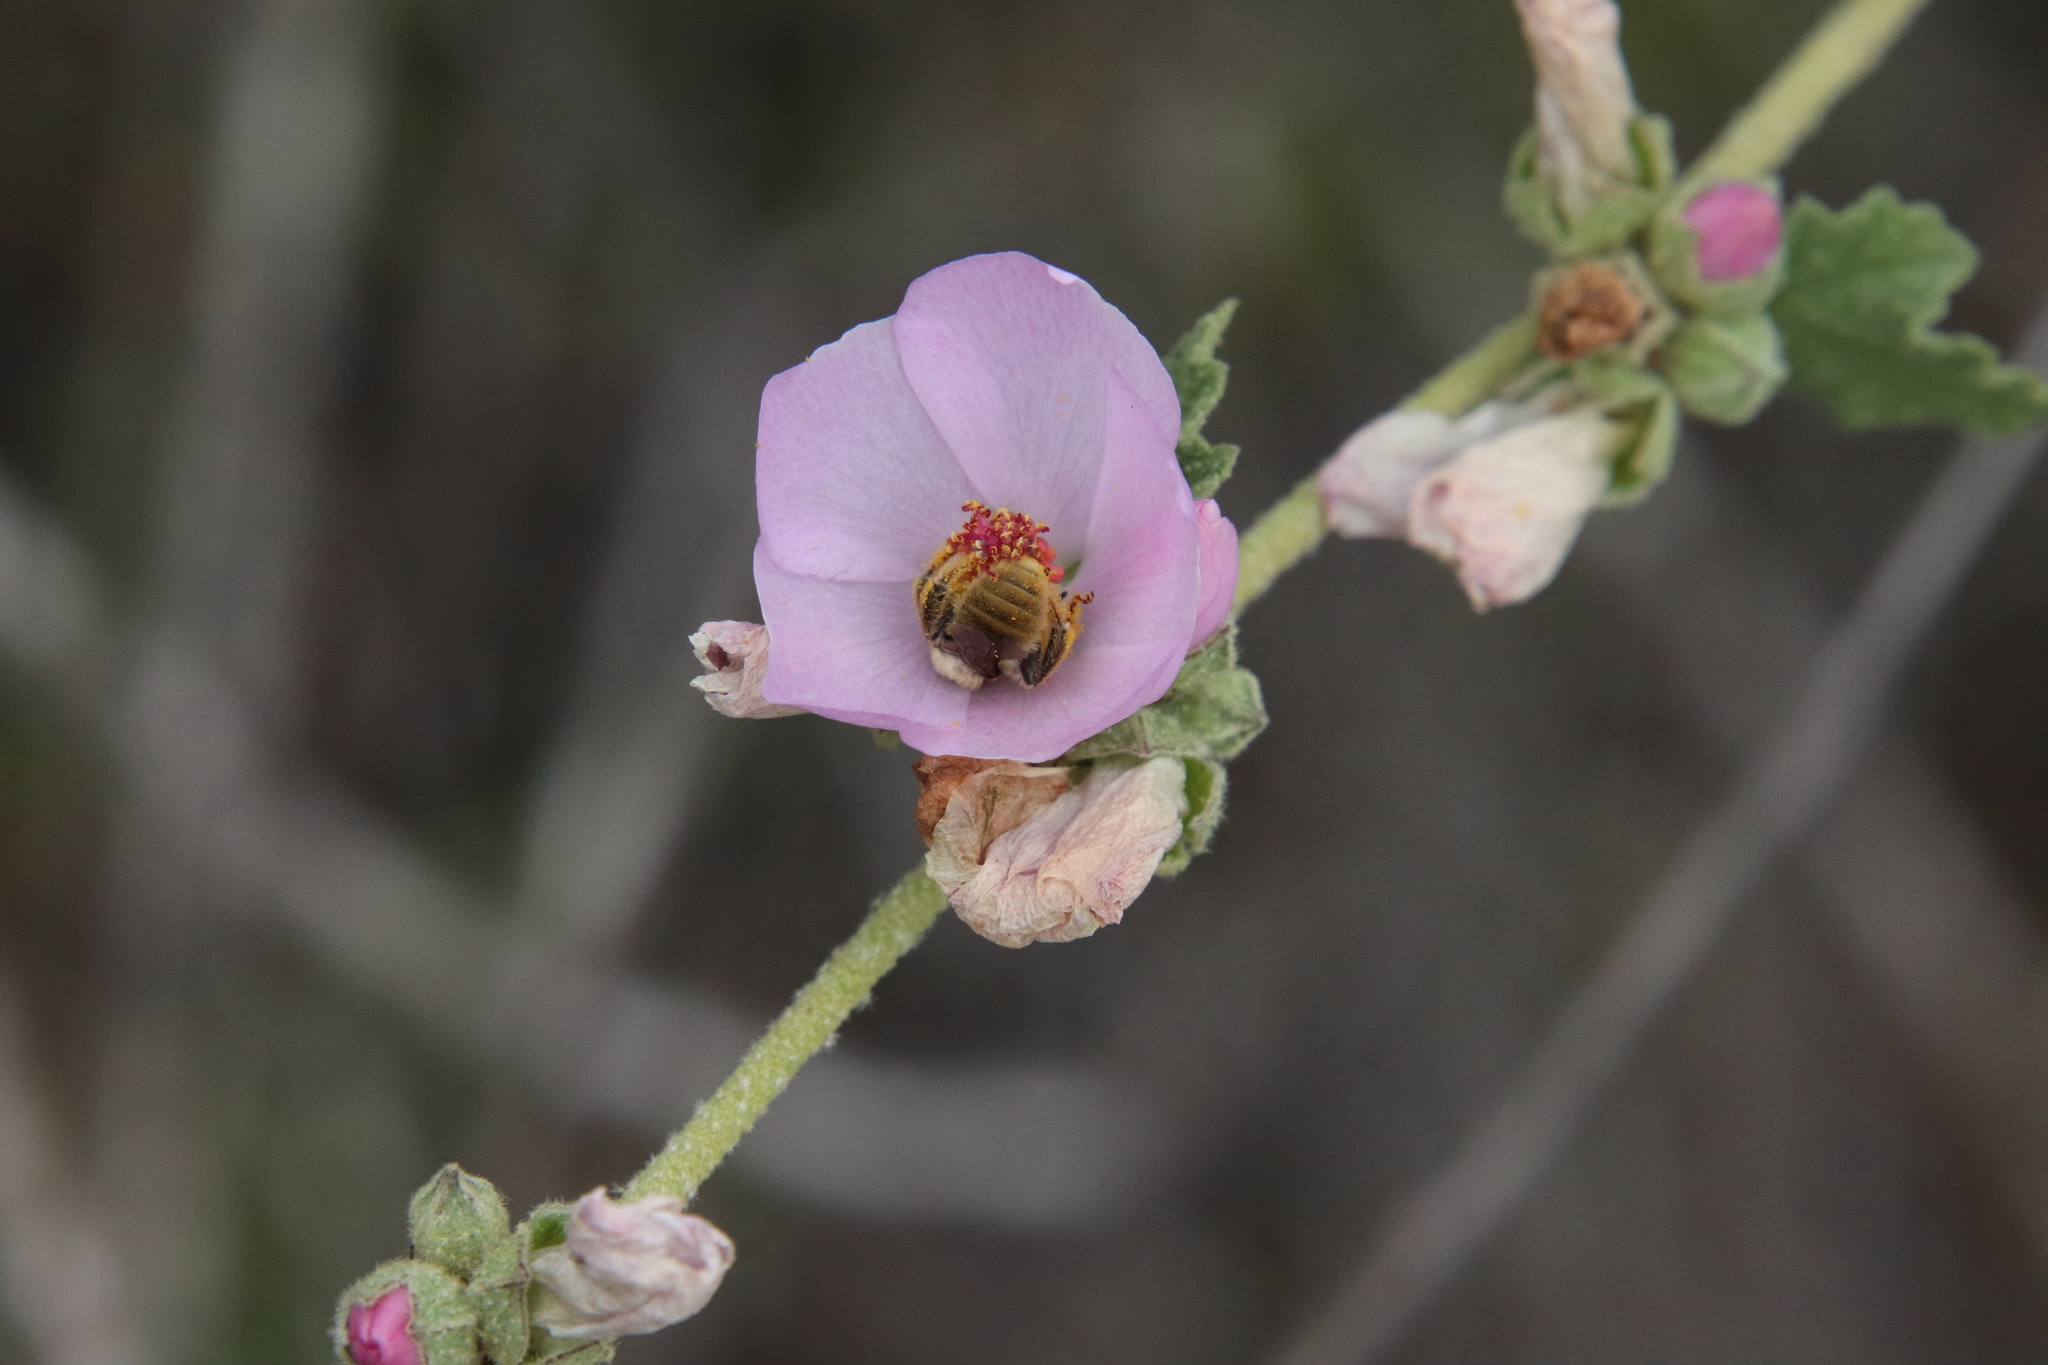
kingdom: Animalia
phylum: Arthropoda
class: Insecta
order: Hymenoptera
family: Apidae
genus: Diadasia
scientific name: Diadasia ochracea
